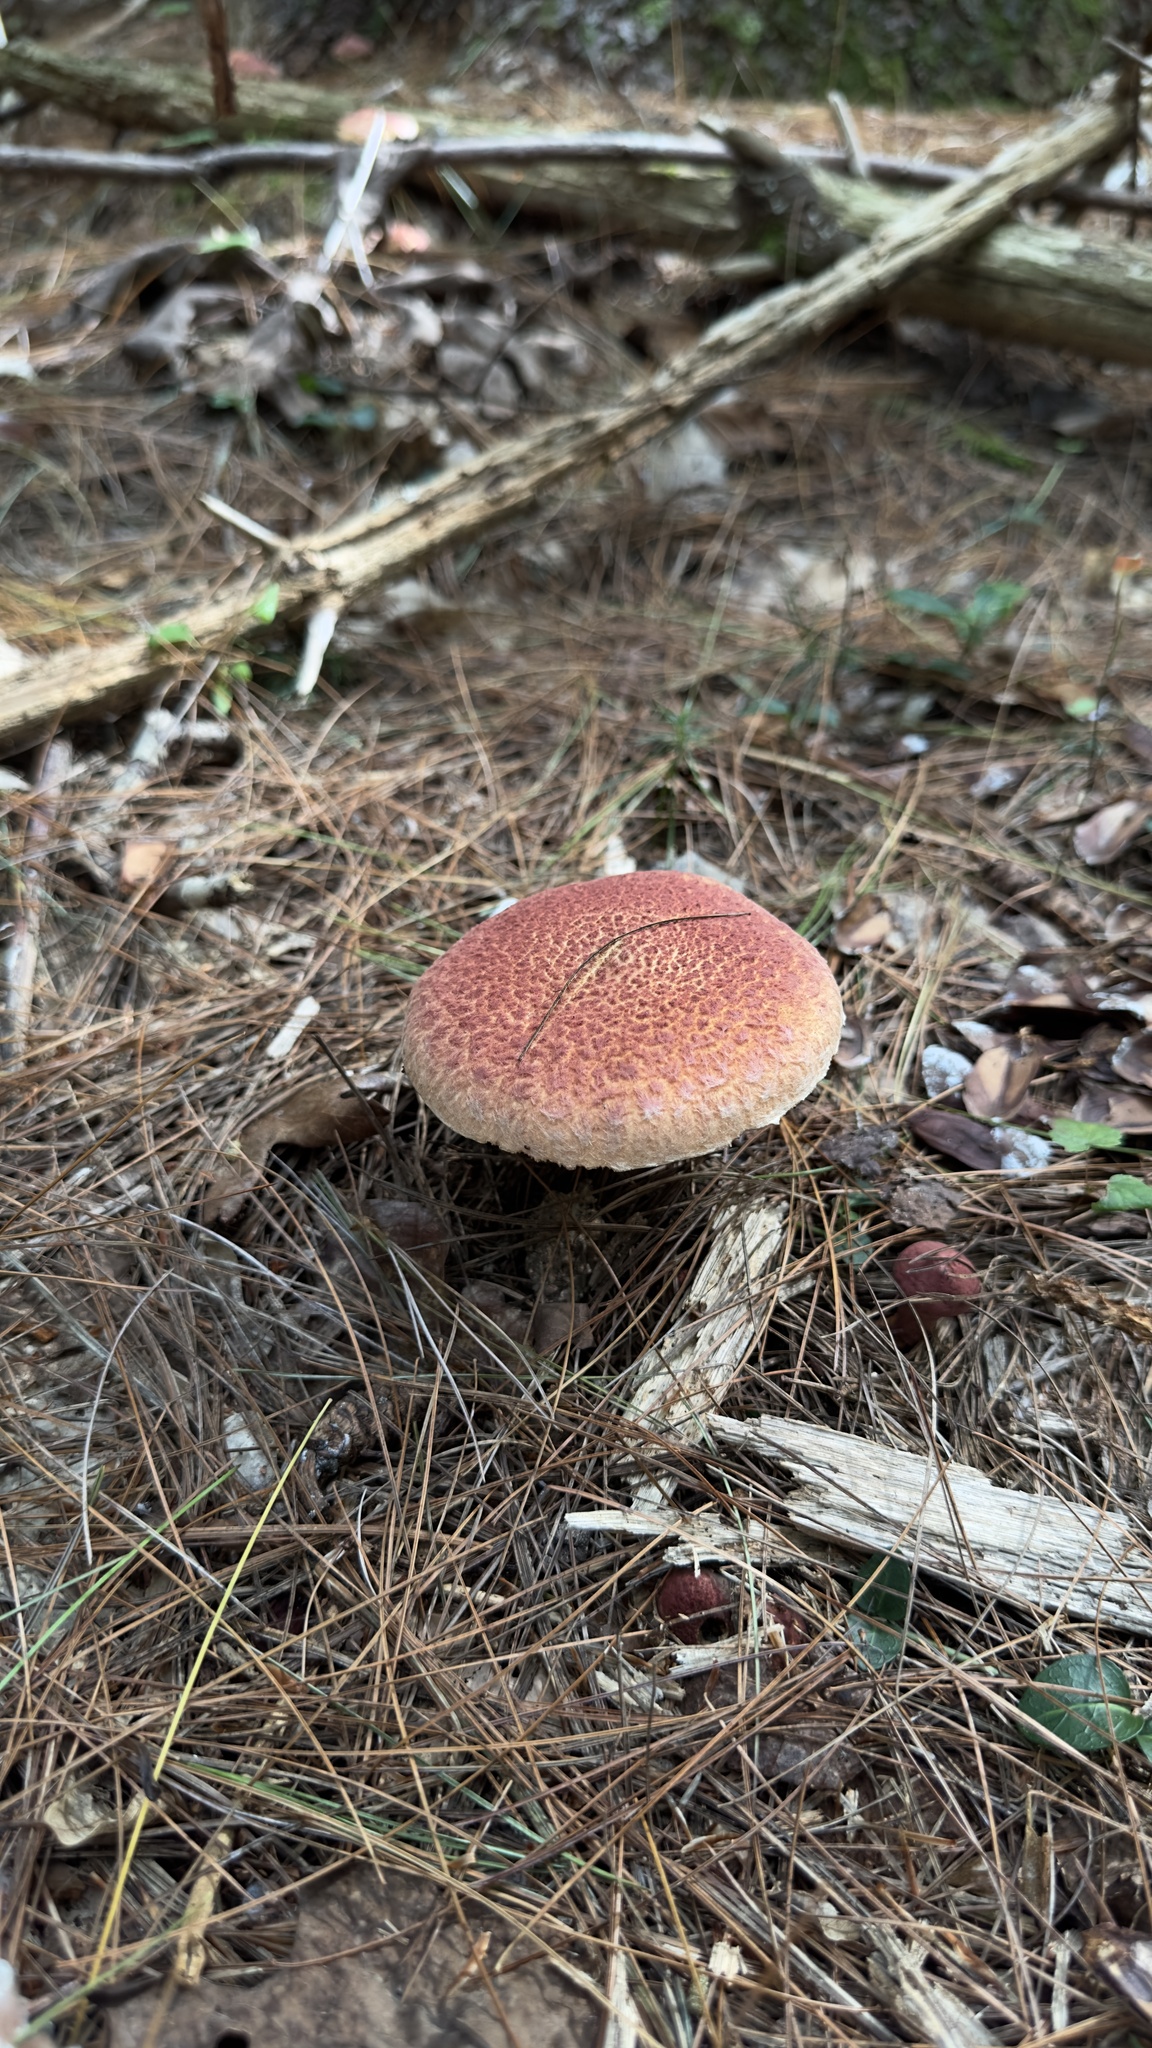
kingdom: Fungi
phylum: Basidiomycota
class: Agaricomycetes
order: Boletales
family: Suillaceae
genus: Suillus
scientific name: Suillus spraguei
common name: Painted suillus
